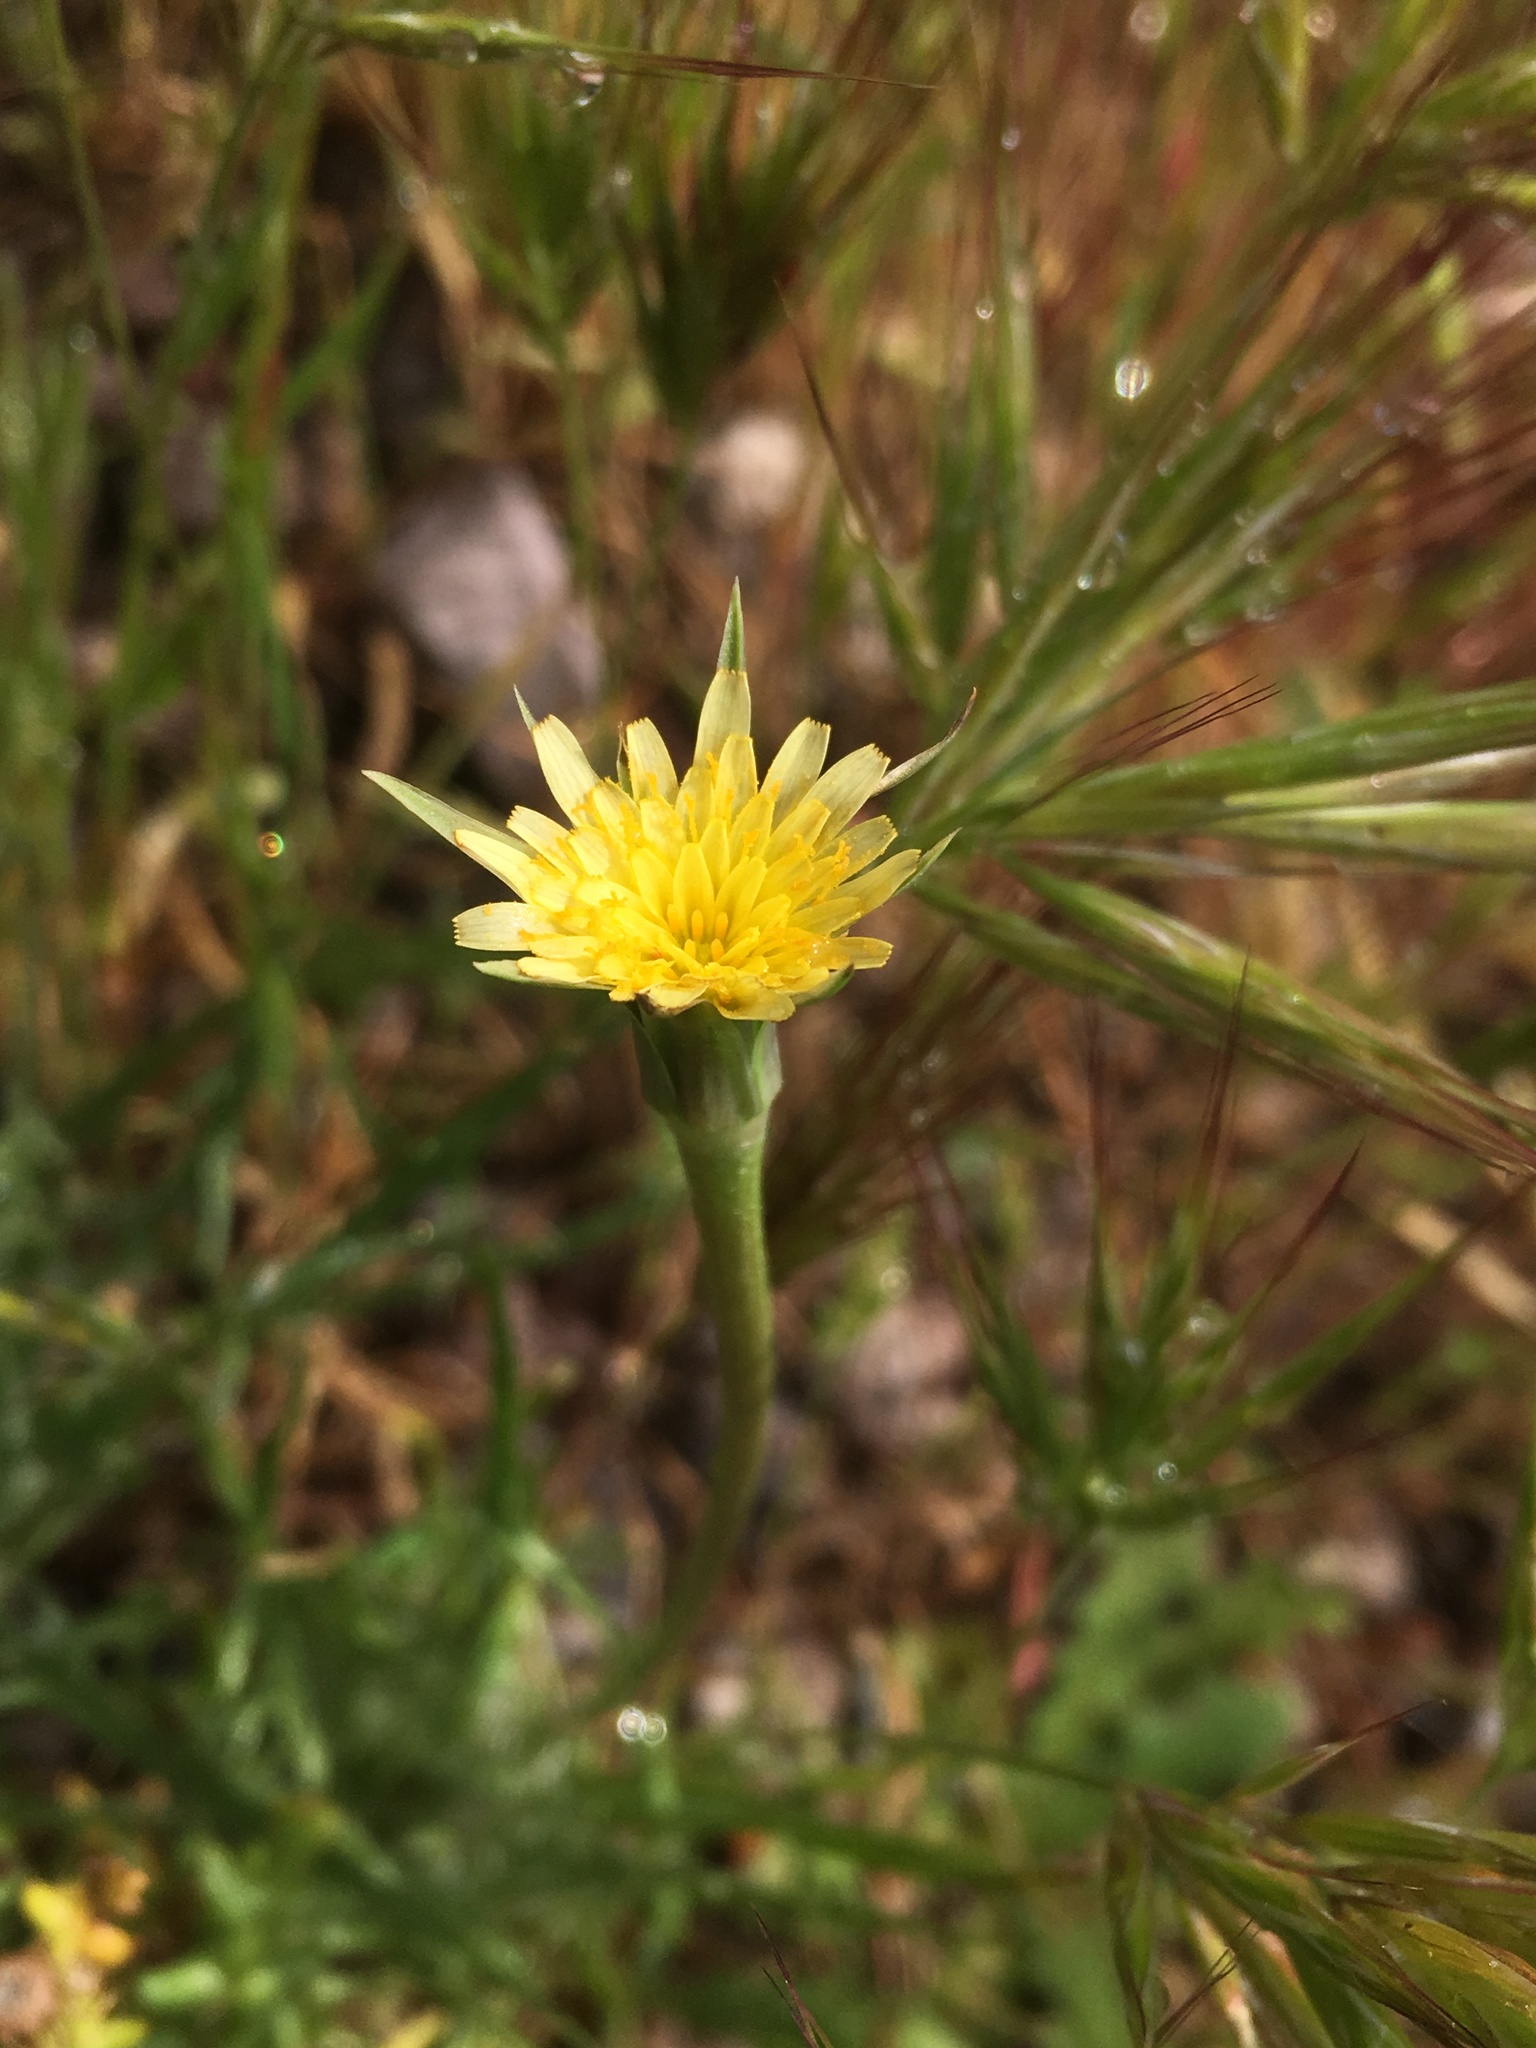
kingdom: Plantae
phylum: Tracheophyta
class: Magnoliopsida
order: Asterales
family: Asteraceae
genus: Microseris
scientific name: Microseris lindleyi
